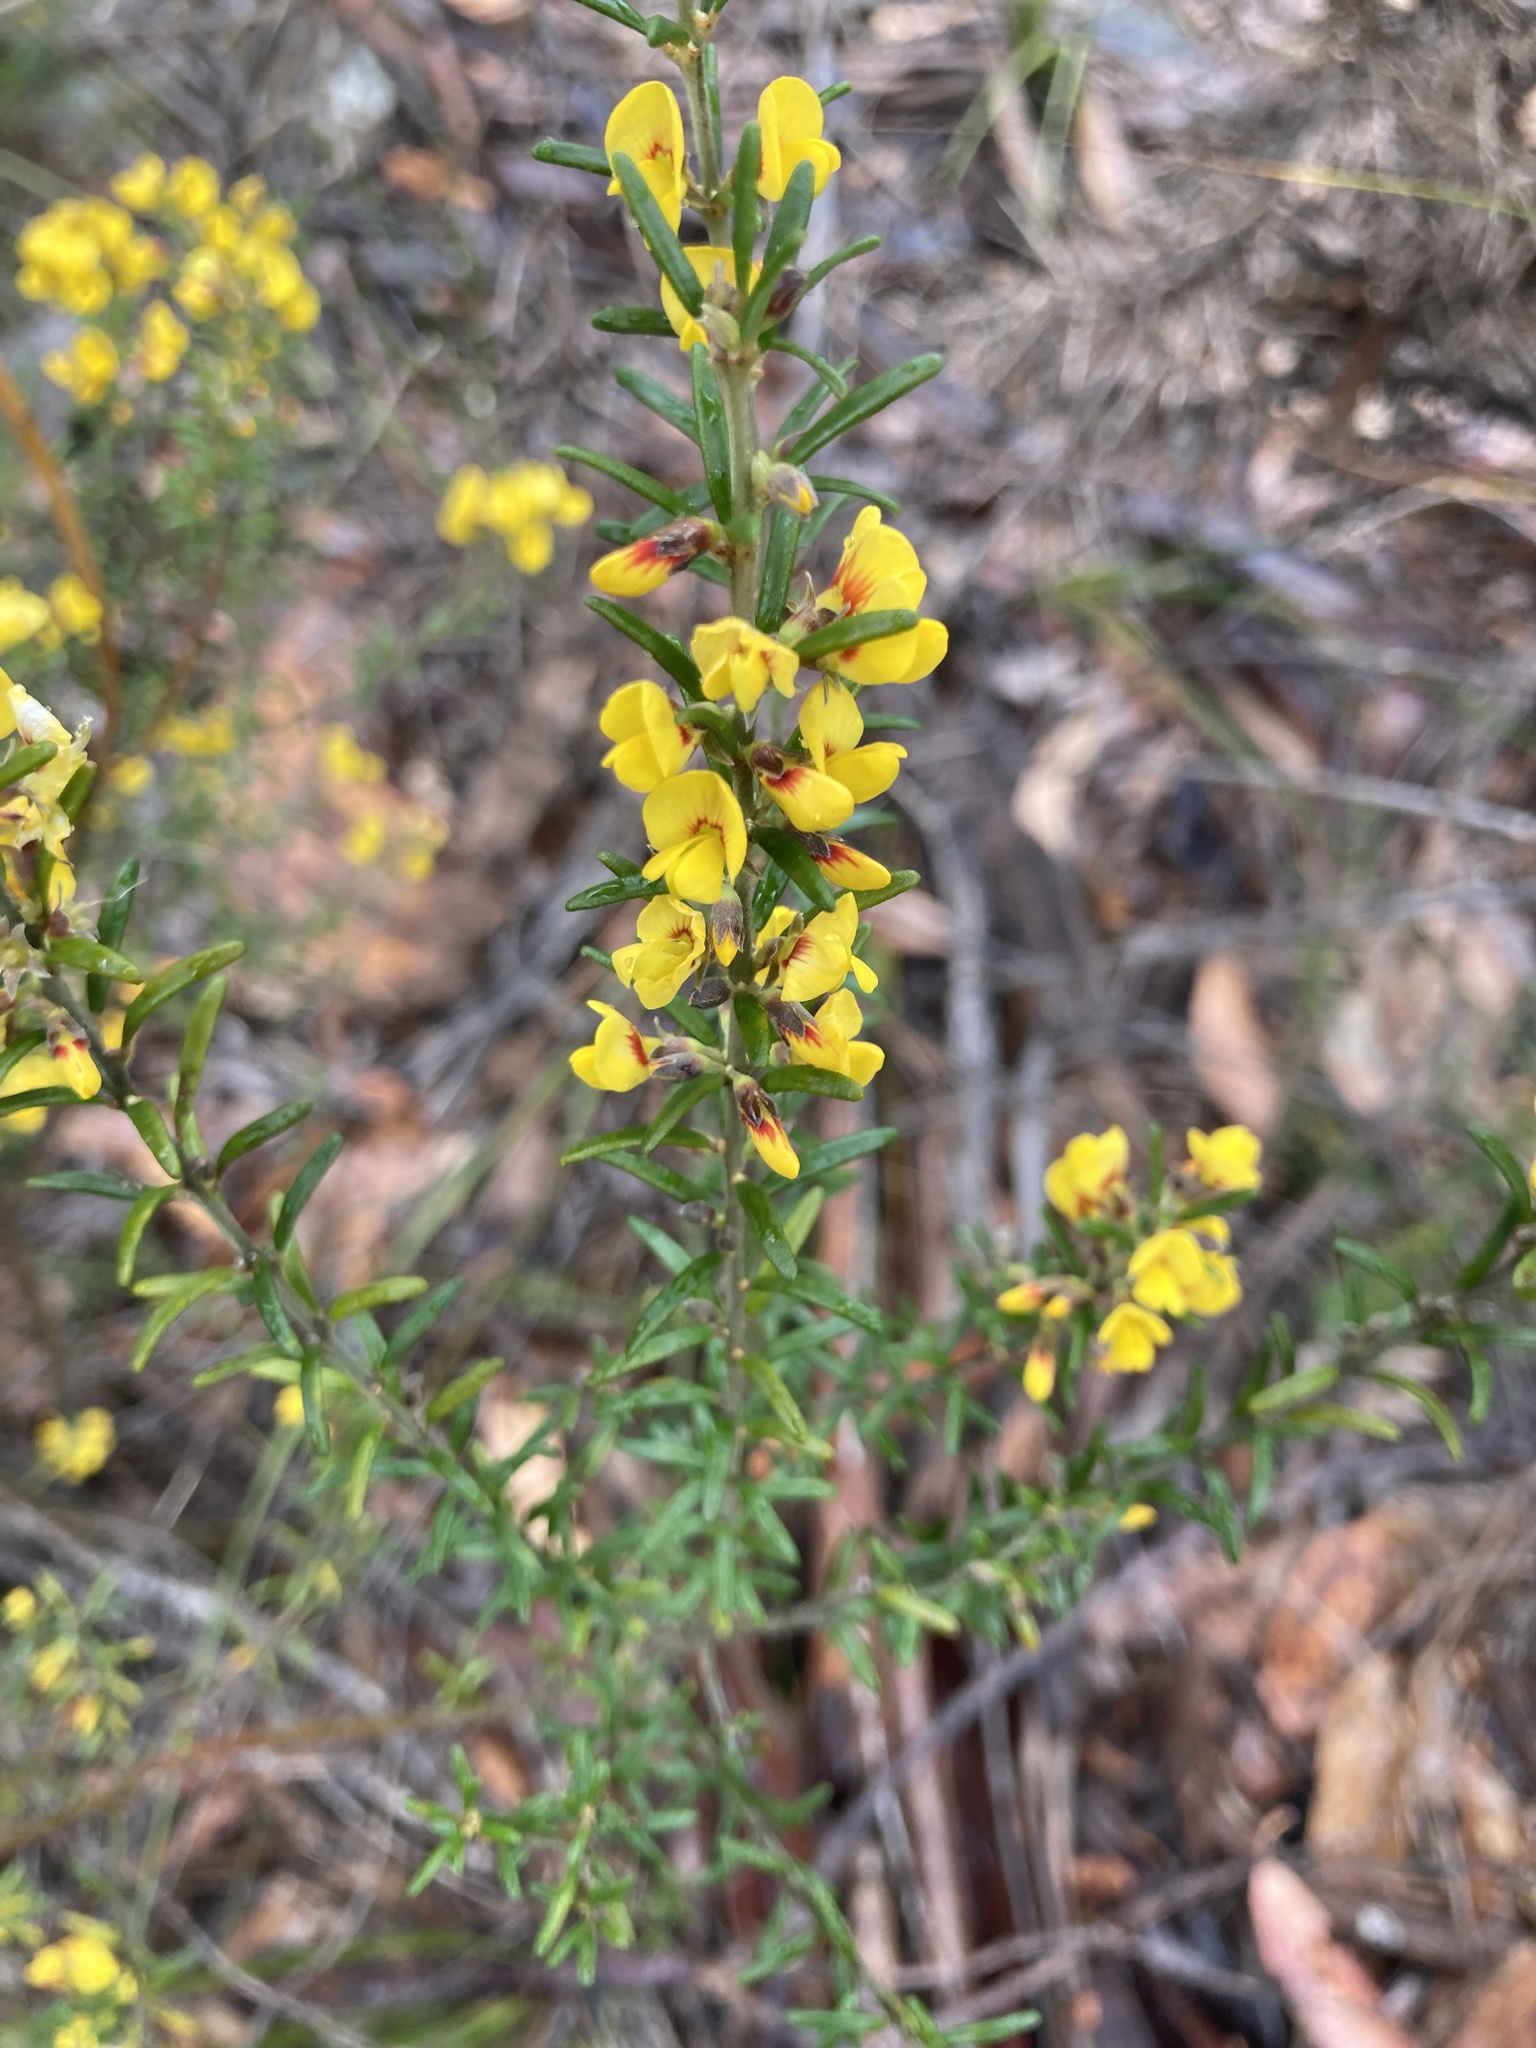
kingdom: Plantae
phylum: Tracheophyta
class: Magnoliopsida
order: Fabales
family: Fabaceae
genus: Aotus
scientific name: Aotus ericoides
